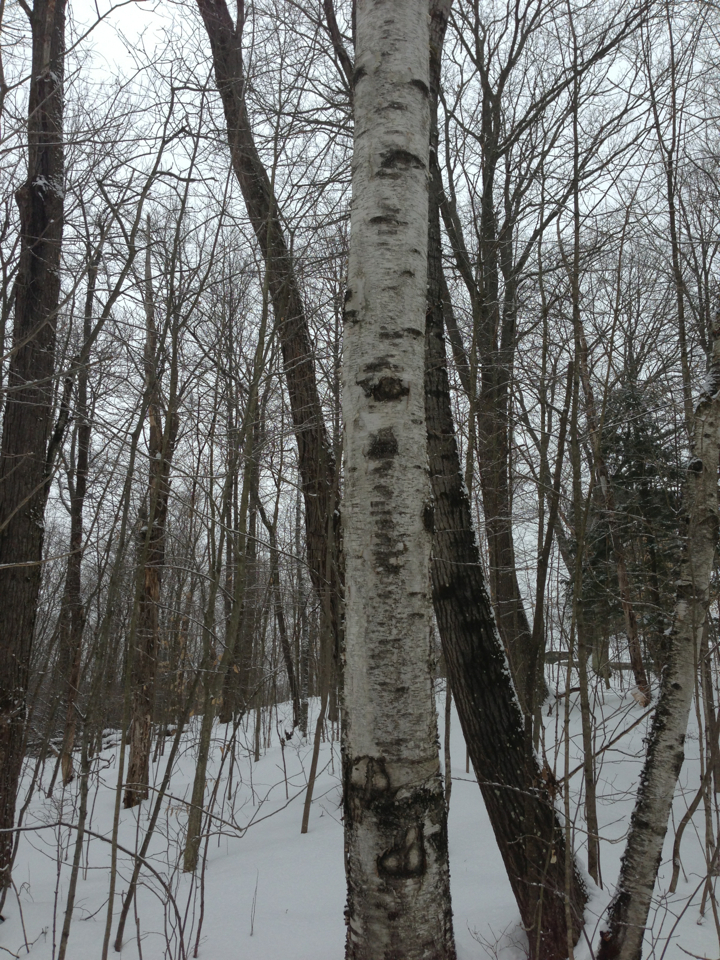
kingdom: Plantae
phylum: Tracheophyta
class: Magnoliopsida
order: Fagales
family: Betulaceae
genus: Betula
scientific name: Betula papyrifera
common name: Paper birch
